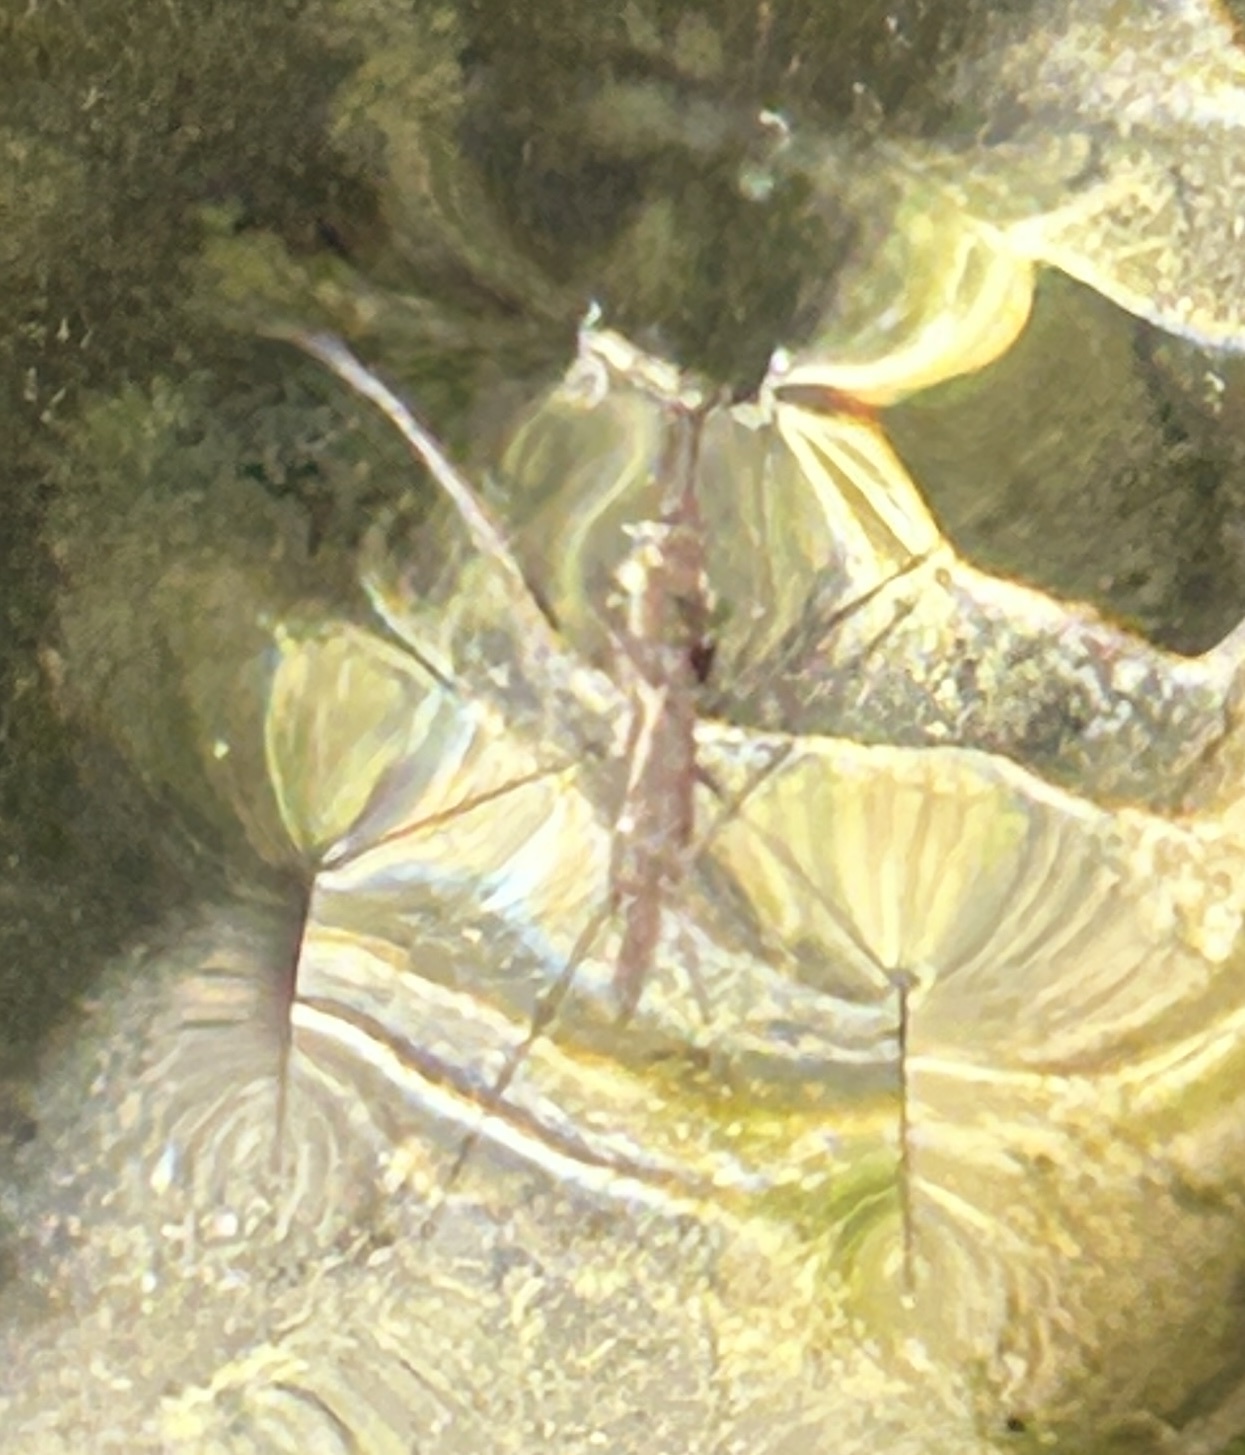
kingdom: Animalia
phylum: Arthropoda
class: Insecta
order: Hemiptera
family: Gerridae
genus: Aquarius
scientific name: Aquarius
